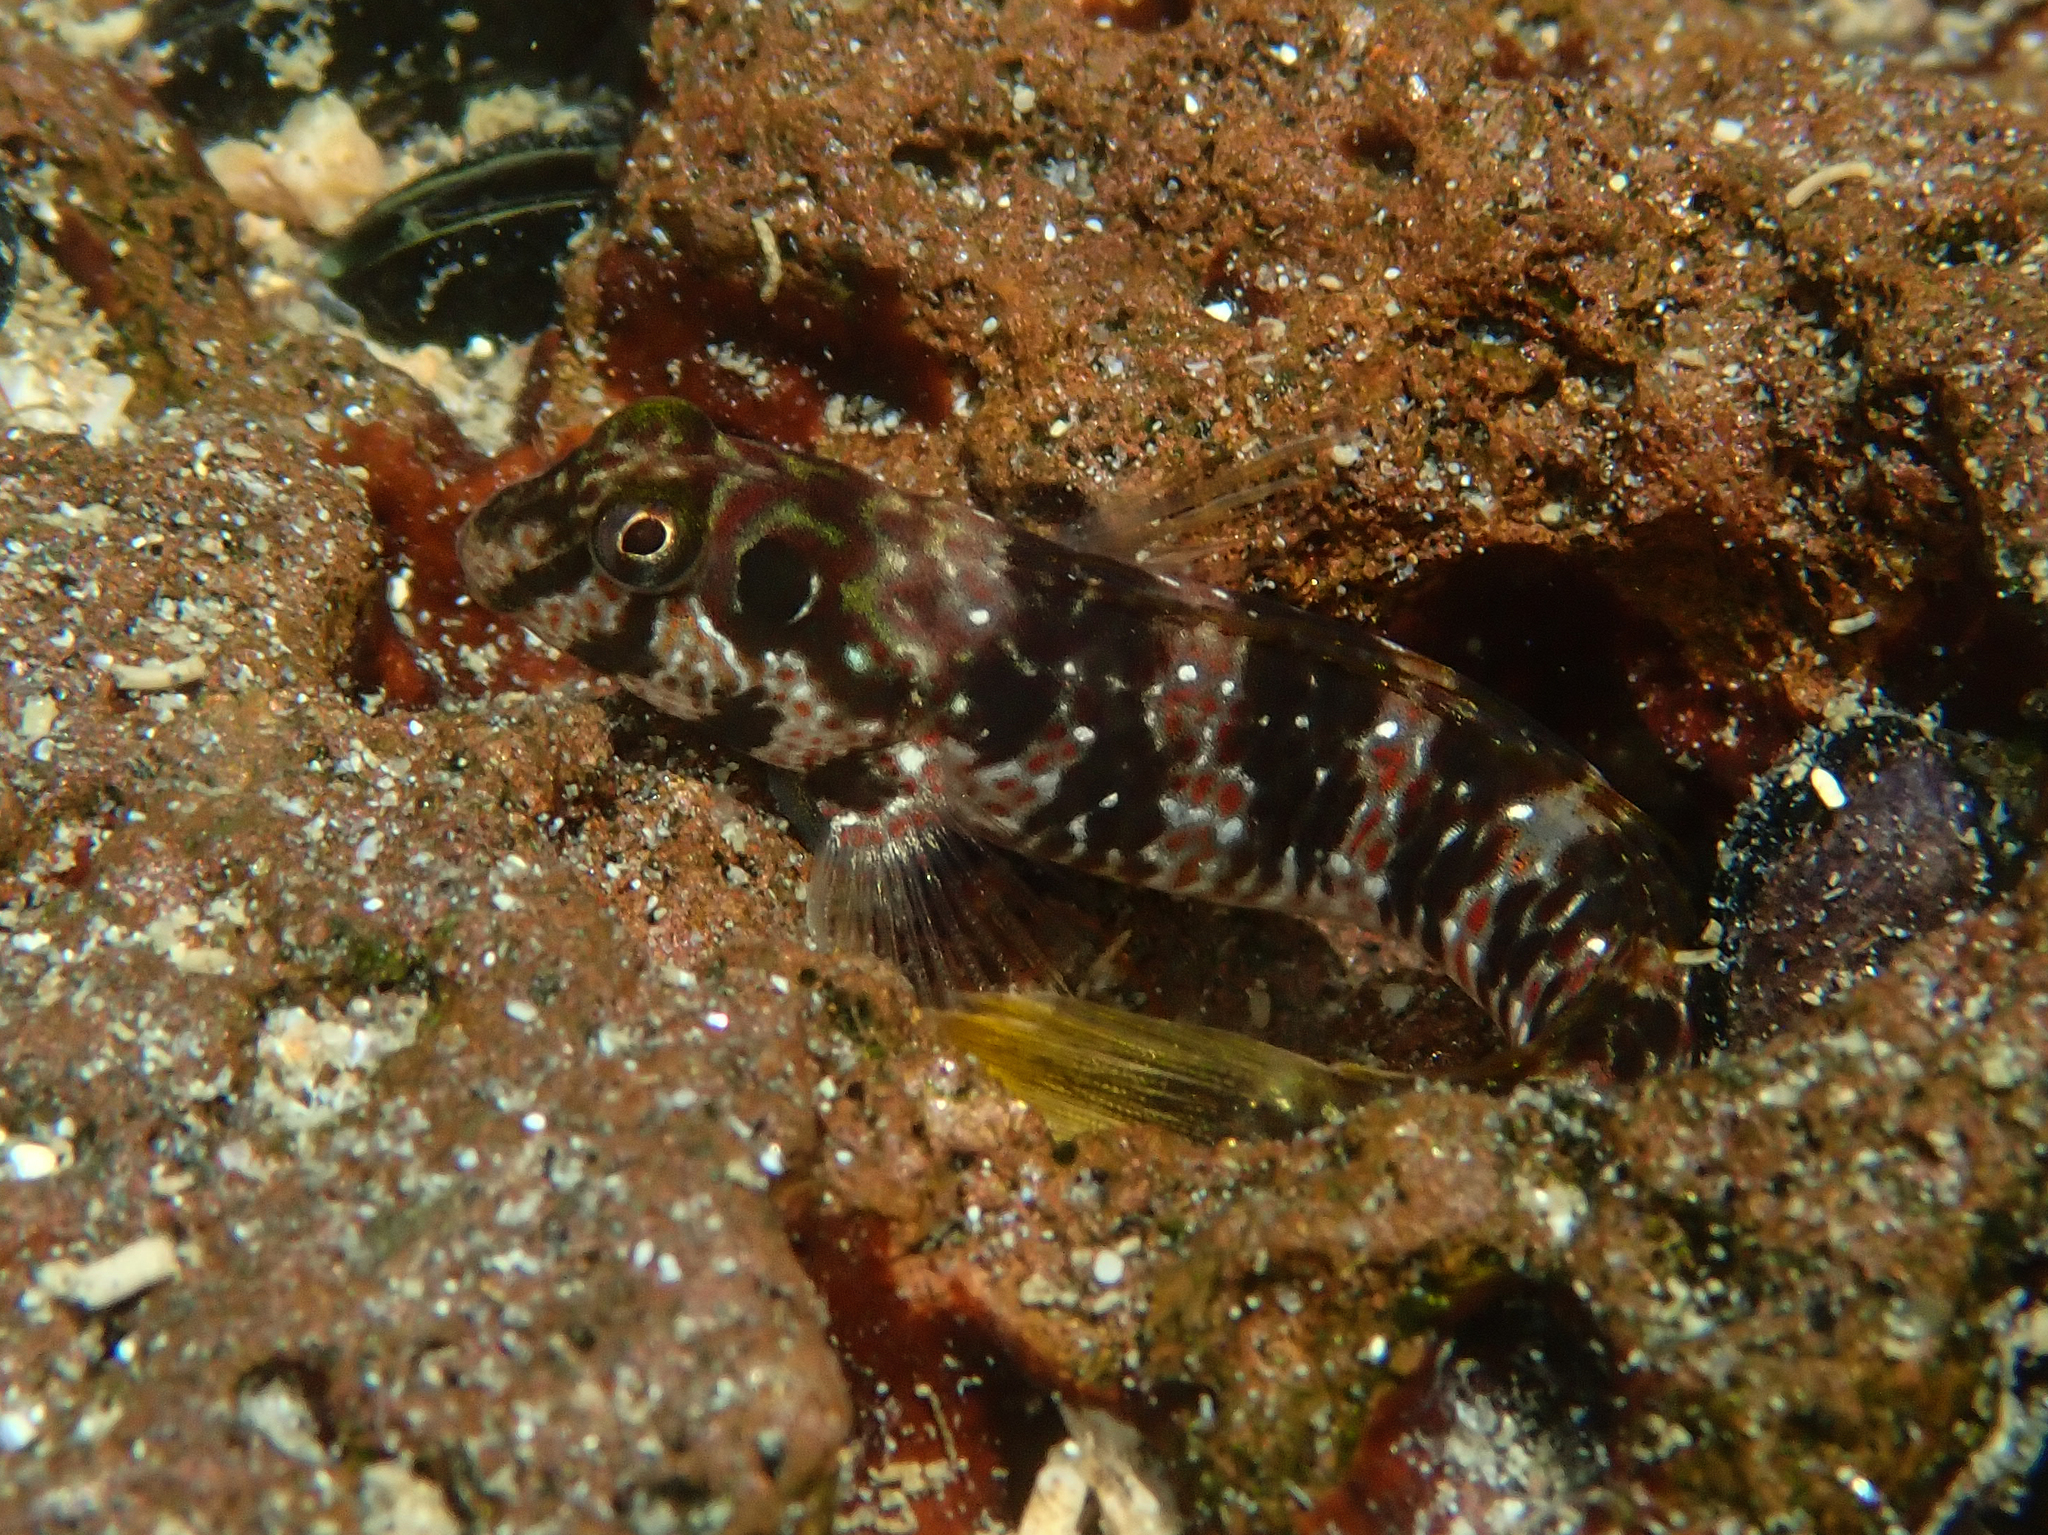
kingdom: Animalia
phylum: Chordata
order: Perciformes
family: Blenniidae
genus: Microlipophrys
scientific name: Microlipophrys velifer
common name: Sailfin blenny
